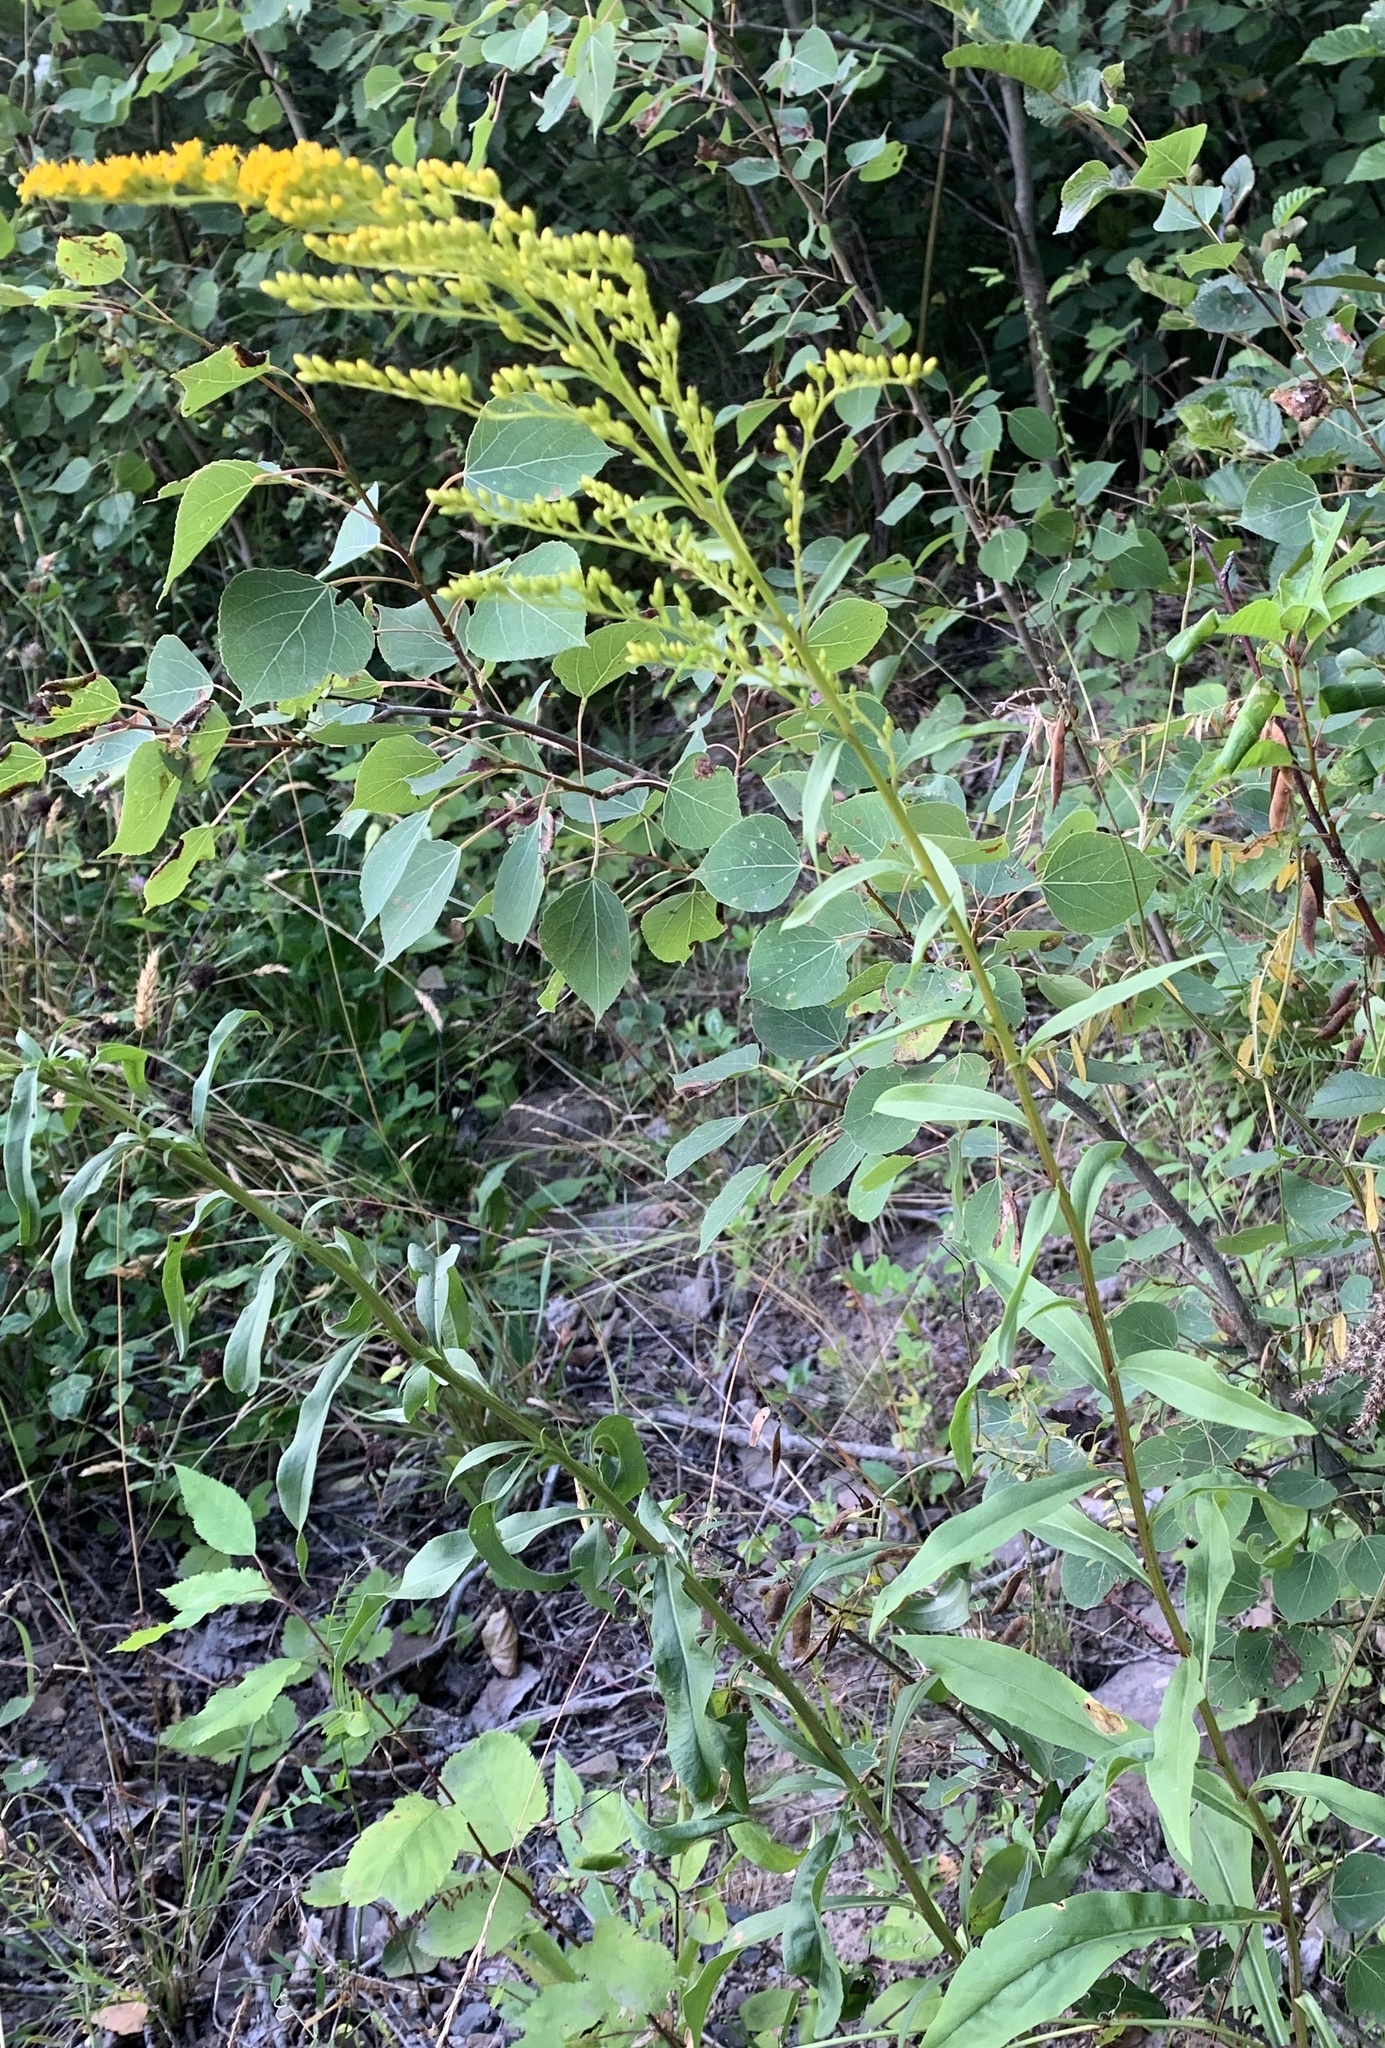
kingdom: Plantae
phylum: Tracheophyta
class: Magnoliopsida
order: Asterales
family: Asteraceae
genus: Solidago
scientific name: Solidago juncea
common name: Early goldenrod
